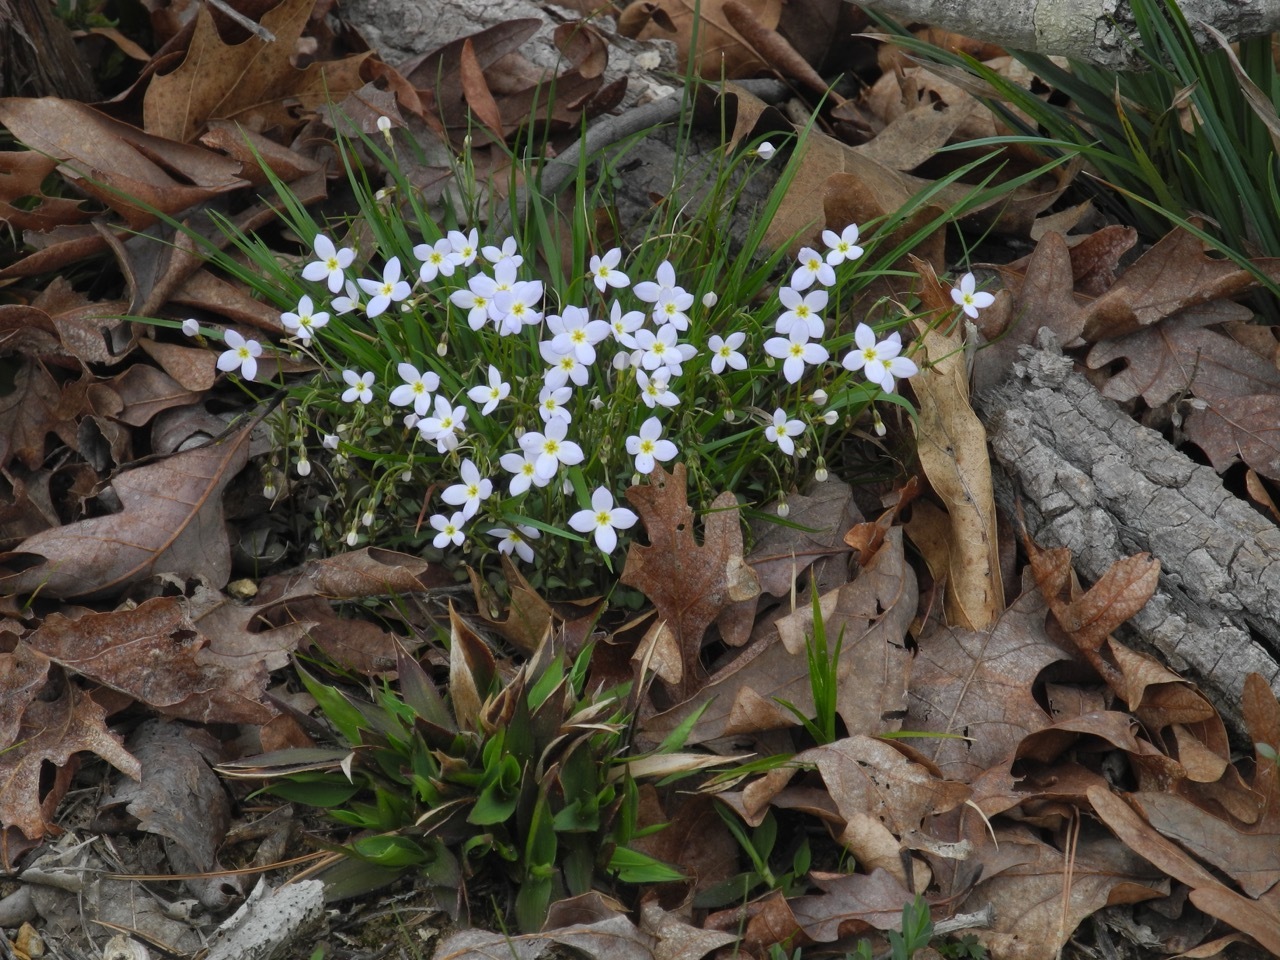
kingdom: Plantae
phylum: Tracheophyta
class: Magnoliopsida
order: Gentianales
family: Rubiaceae
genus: Houstonia
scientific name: Houstonia caerulea
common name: Bluets
